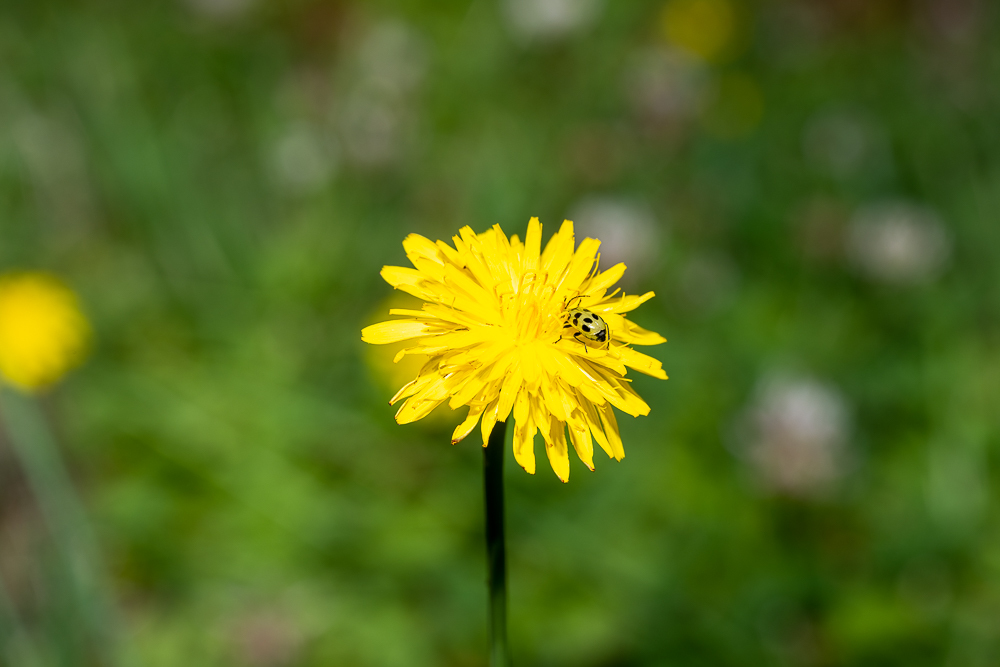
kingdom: Animalia
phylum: Arthropoda
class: Insecta
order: Coleoptera
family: Chrysomelidae
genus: Diabrotica
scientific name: Diabrotica undecimpunctata
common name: Spotted cucumber beetle
